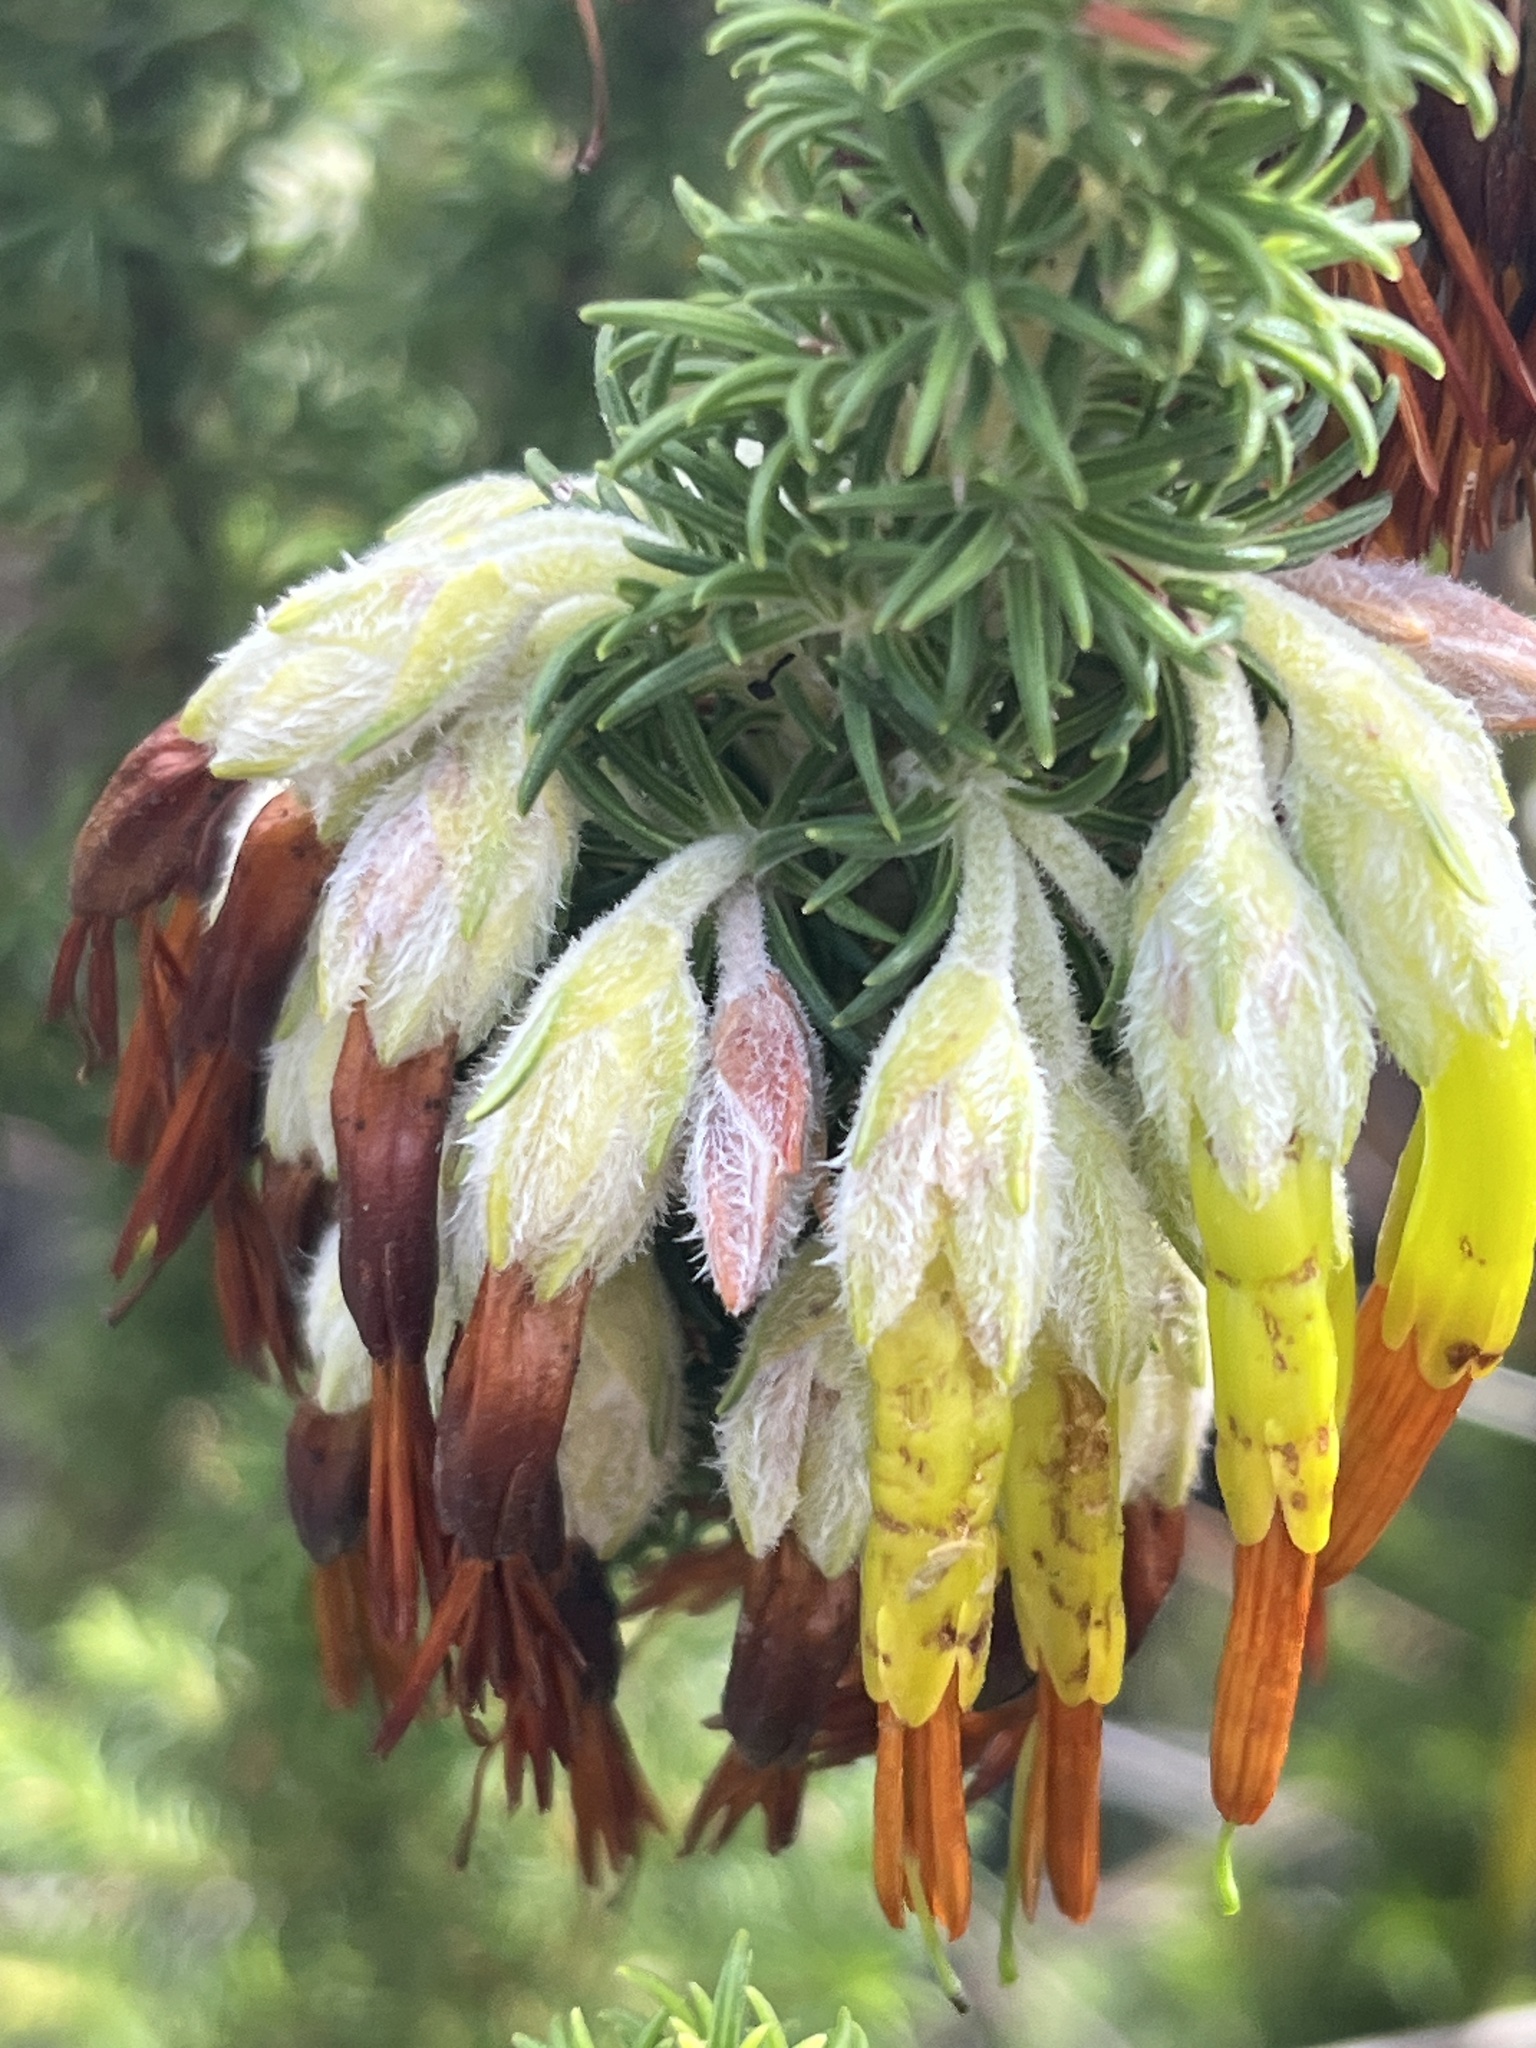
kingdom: Plantae
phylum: Tracheophyta
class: Magnoliopsida
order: Ericales
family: Ericaceae
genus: Erica
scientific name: Erica coccinea
